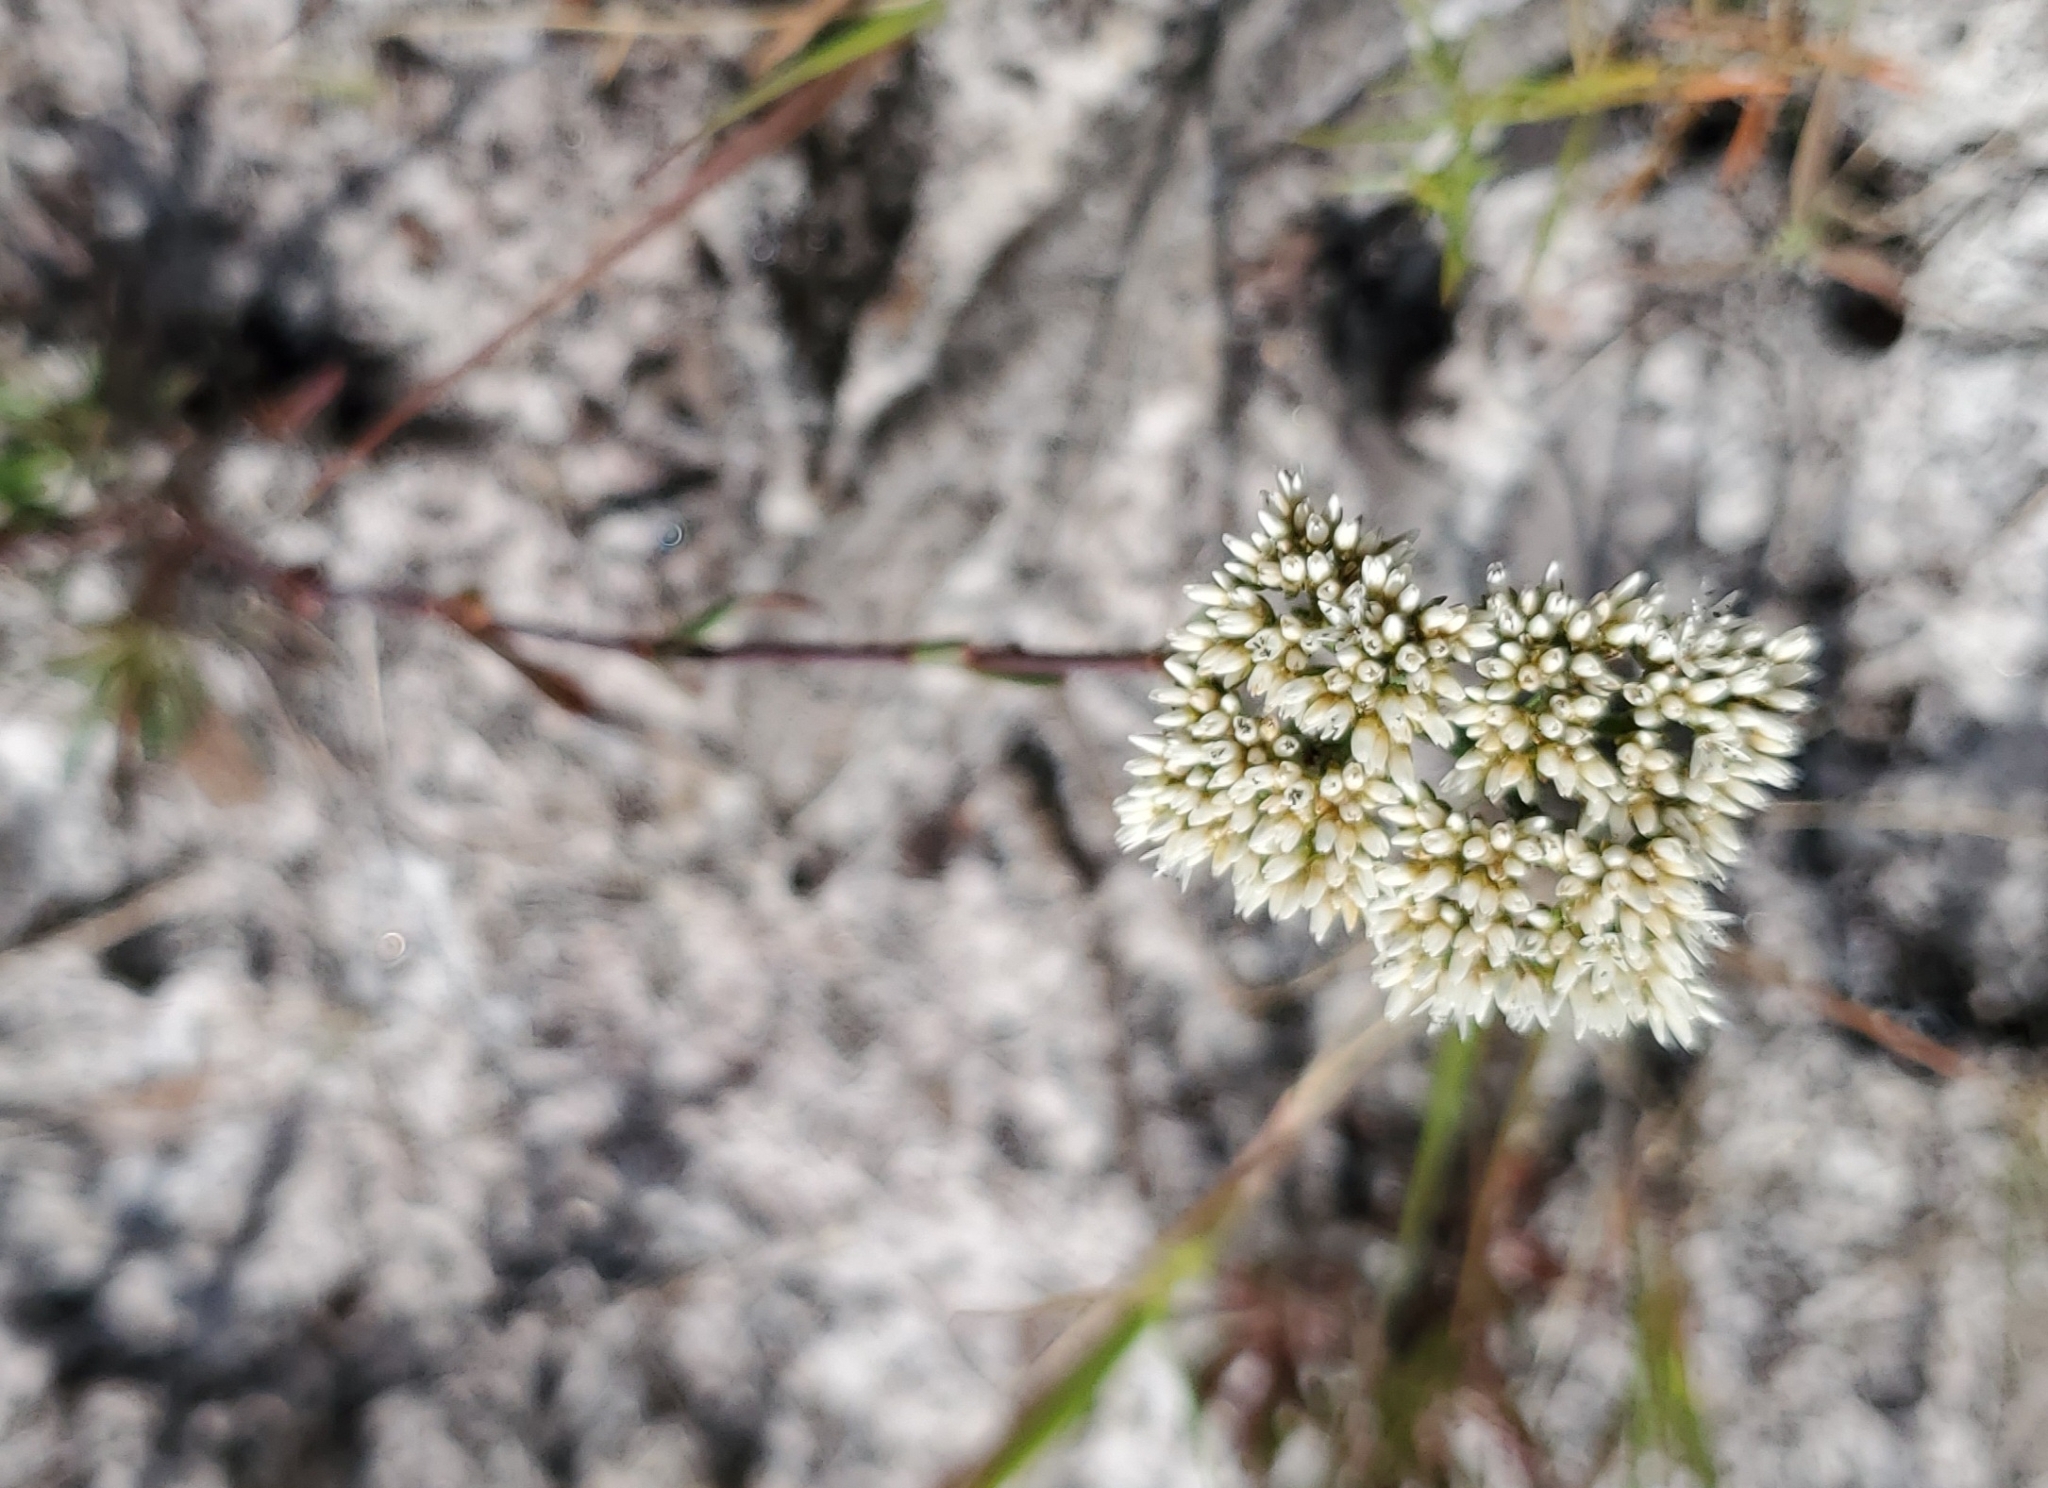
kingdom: Plantae
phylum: Tracheophyta
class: Magnoliopsida
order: Caryophyllales
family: Caryophyllaceae
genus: Paronychia
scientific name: Paronychia erecta
